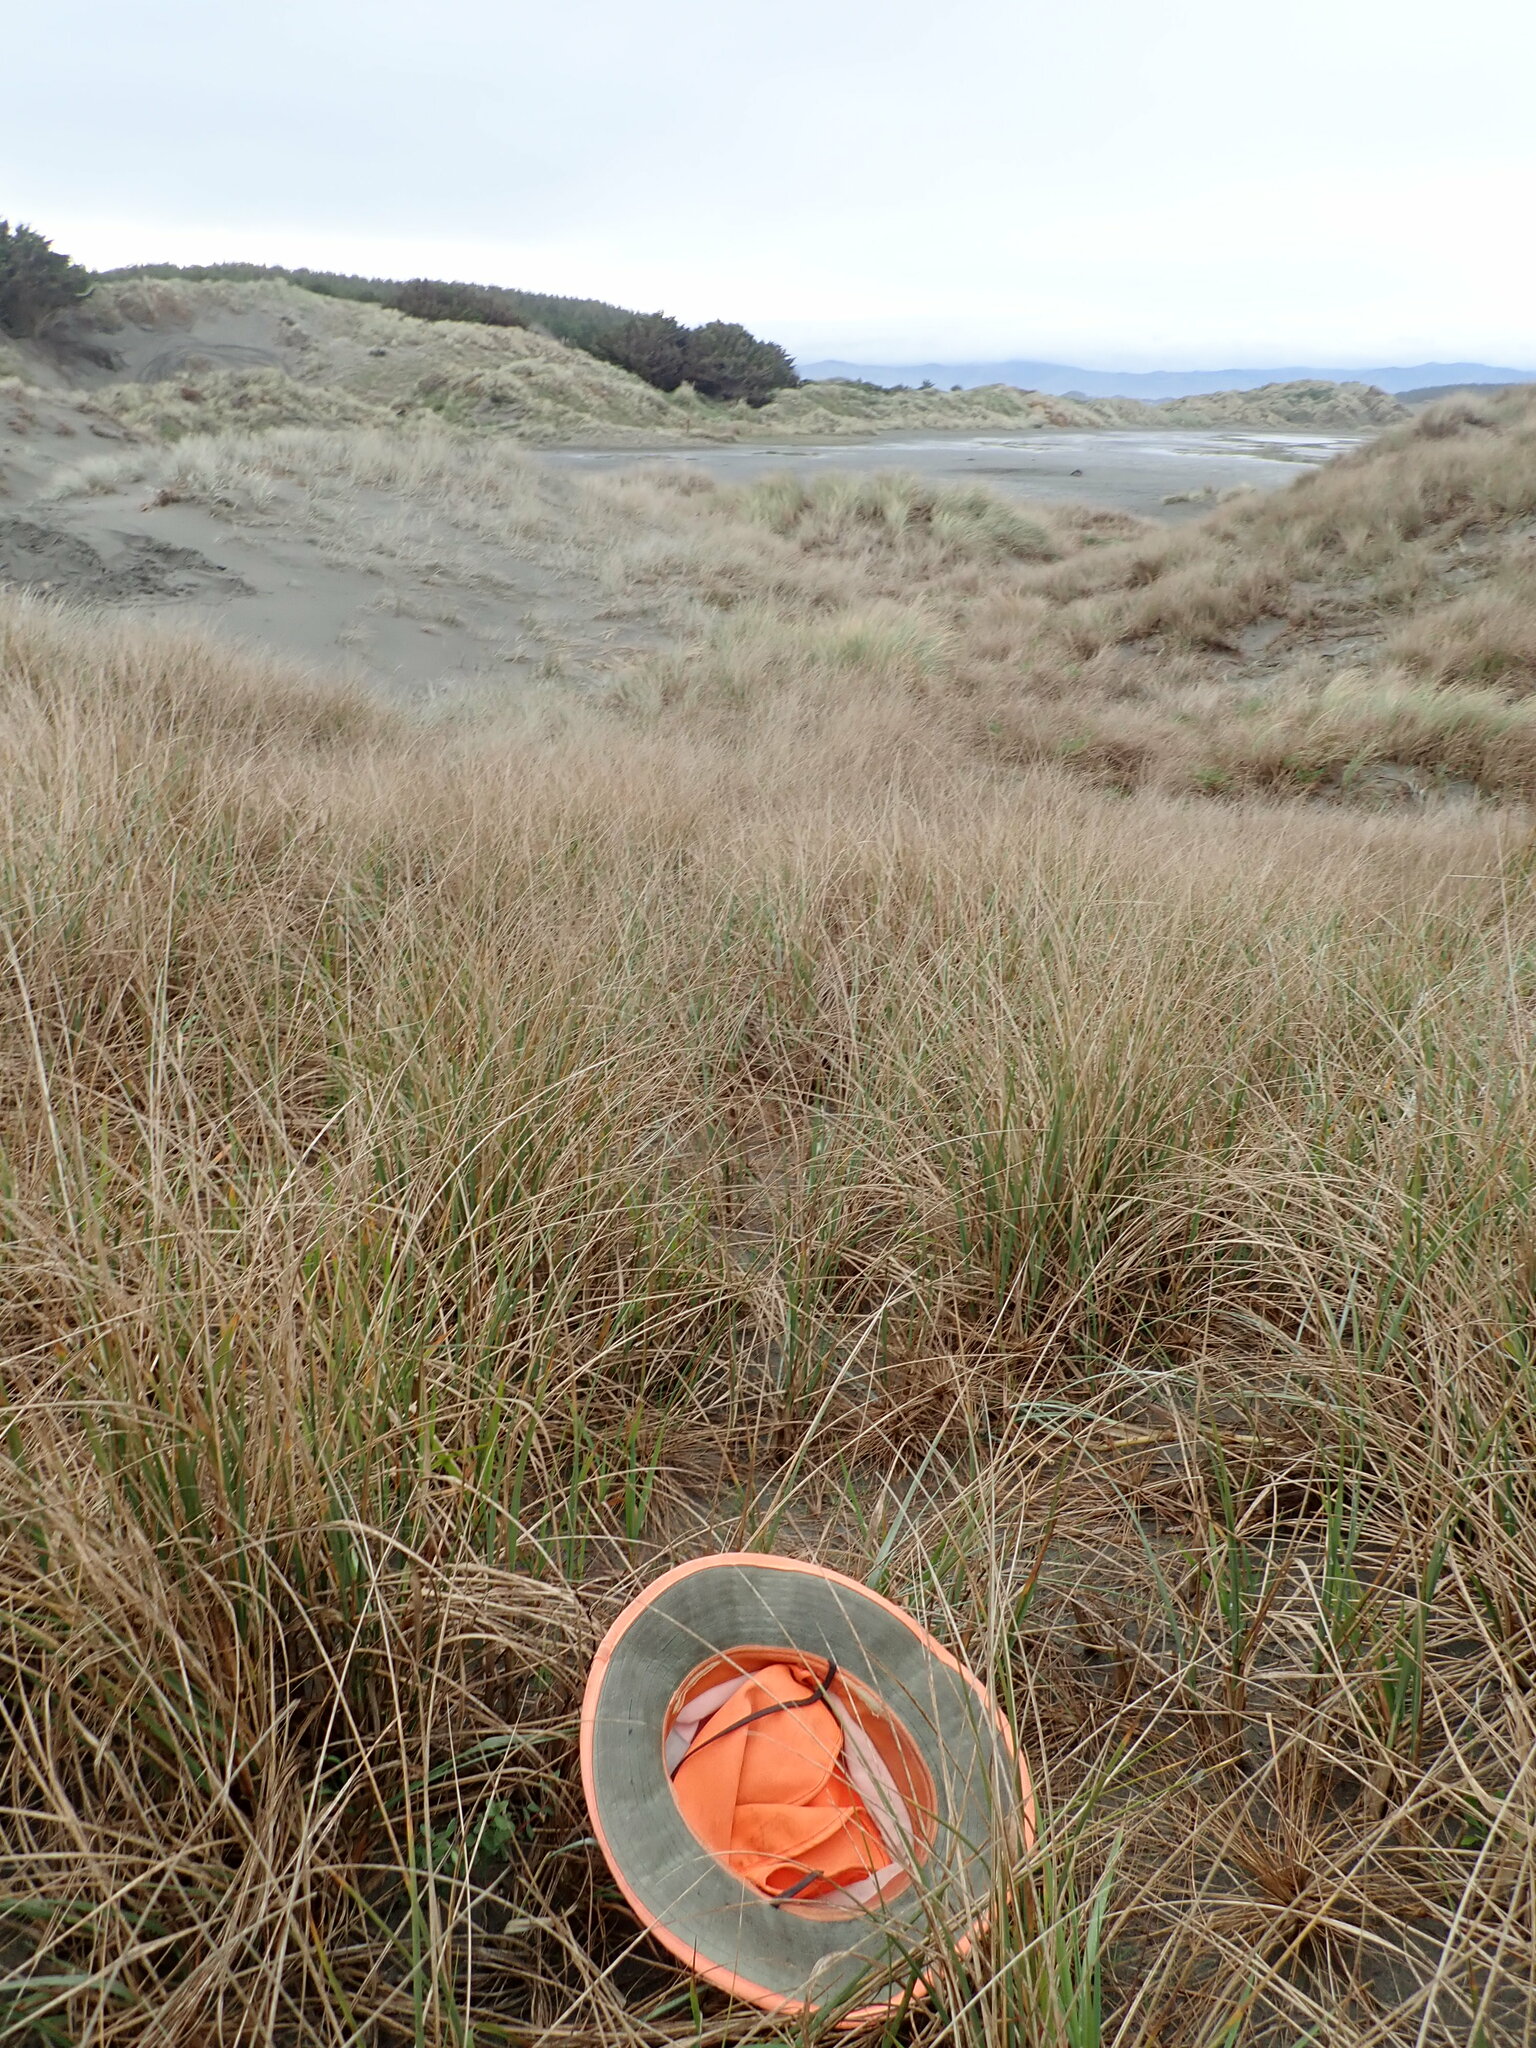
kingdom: Plantae
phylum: Tracheophyta
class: Magnoliopsida
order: Malvales
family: Thymelaeaceae
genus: Pimelea
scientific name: Pimelea villosa
